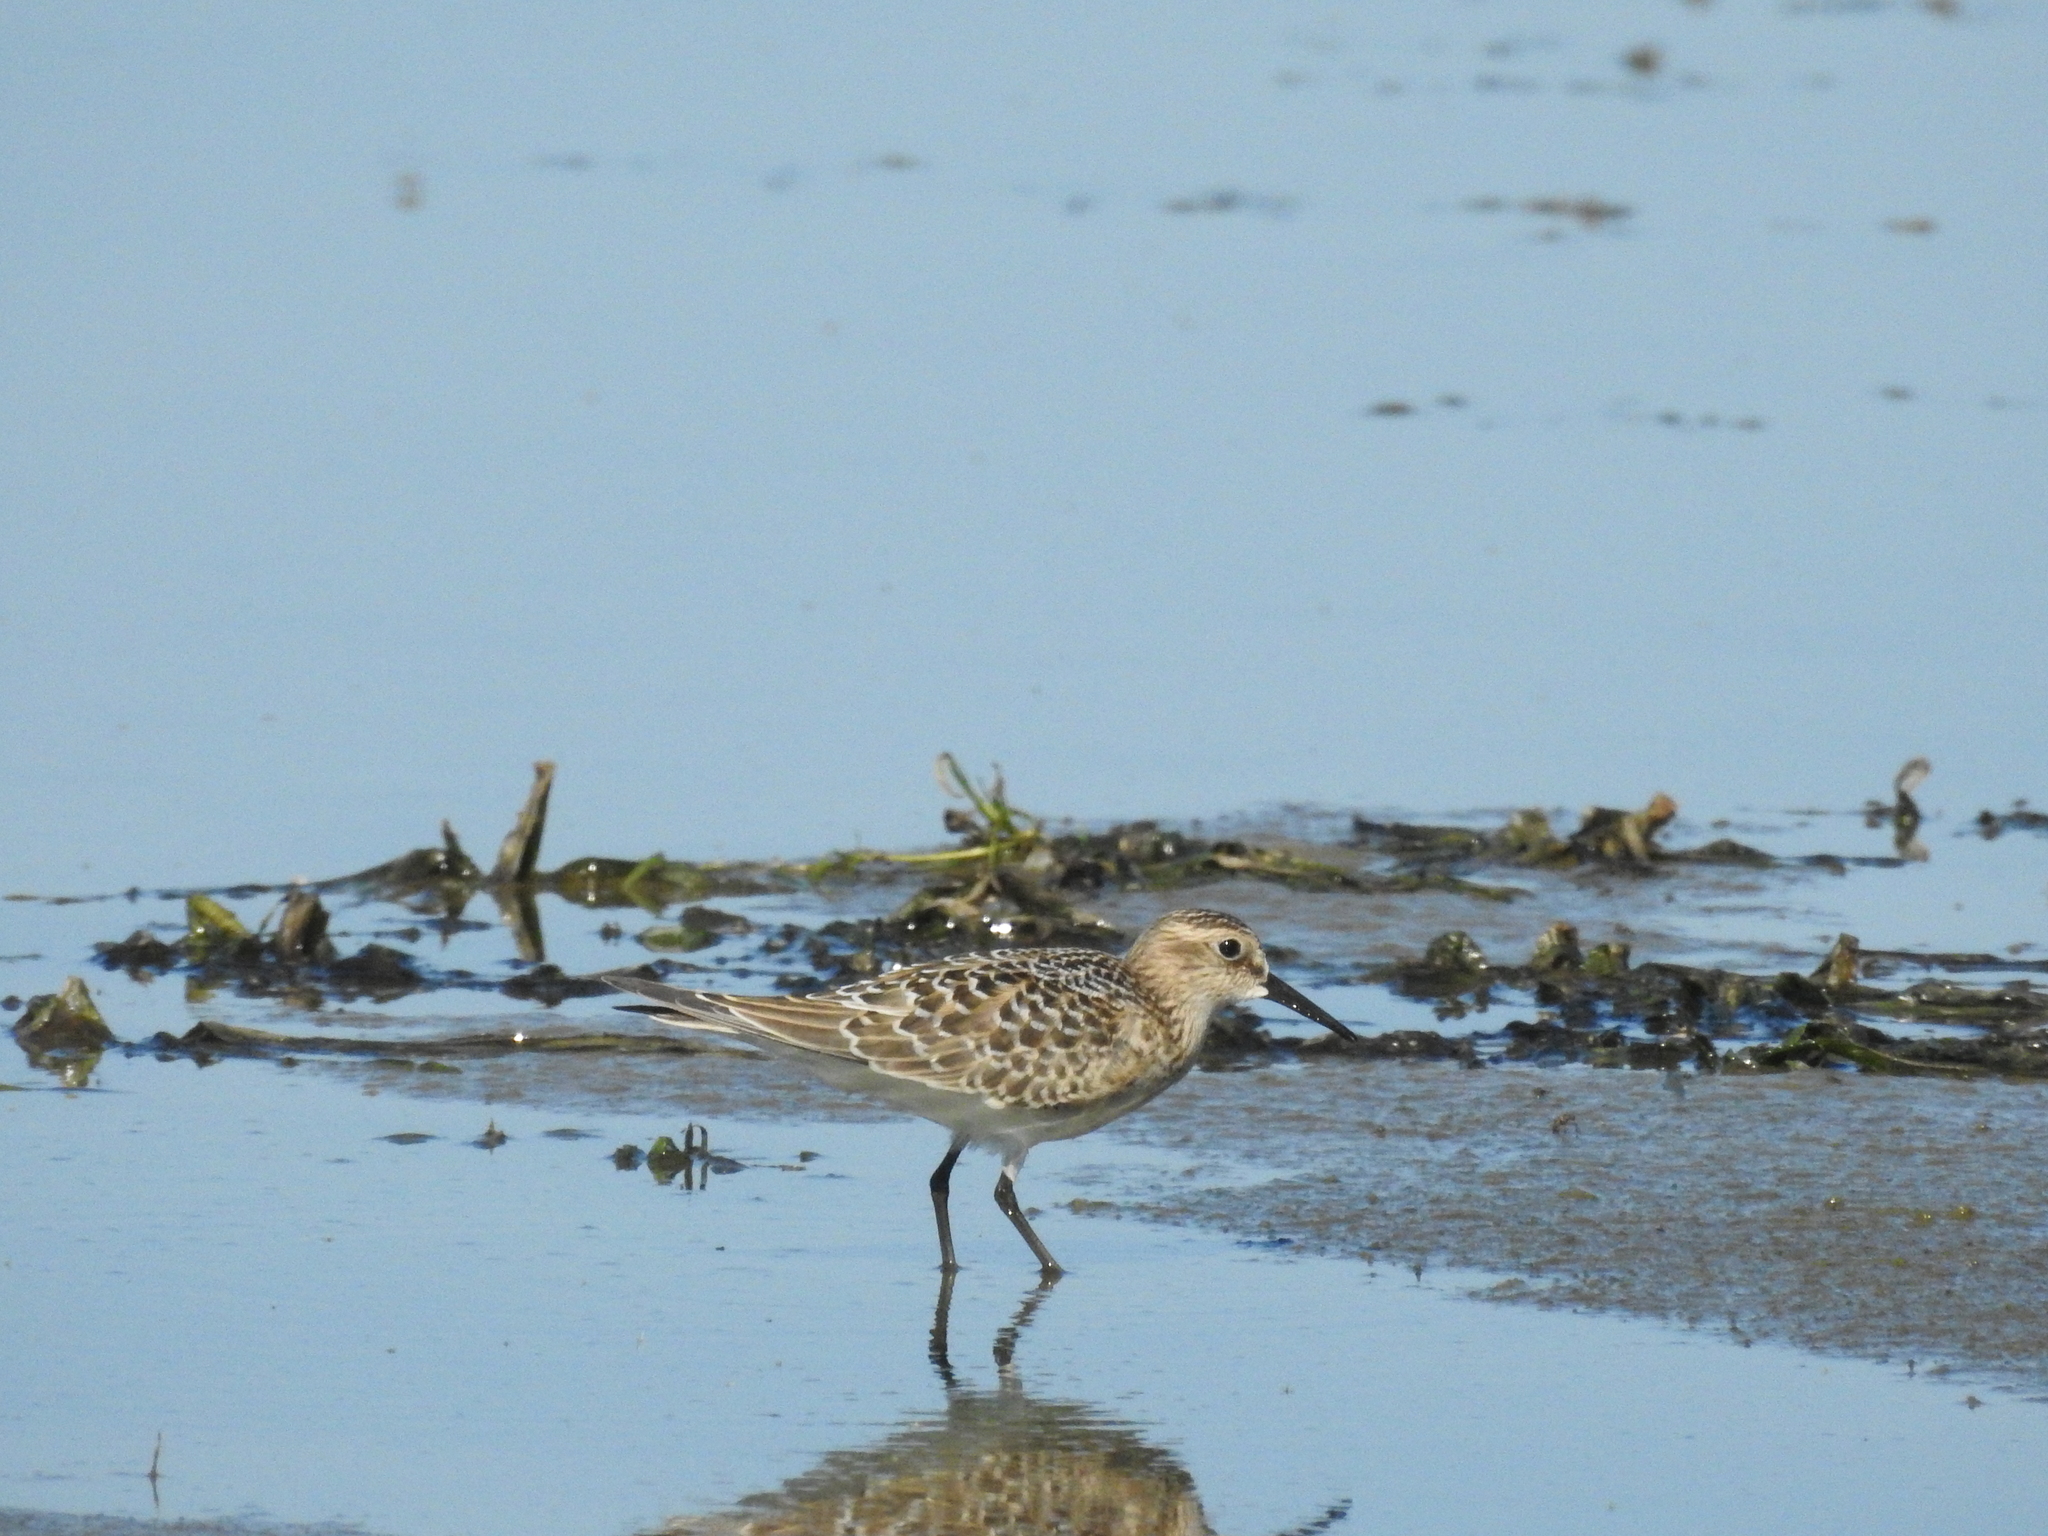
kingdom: Animalia
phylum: Chordata
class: Aves
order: Charadriiformes
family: Scolopacidae
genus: Calidris
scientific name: Calidris bairdii
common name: Baird's sandpiper
